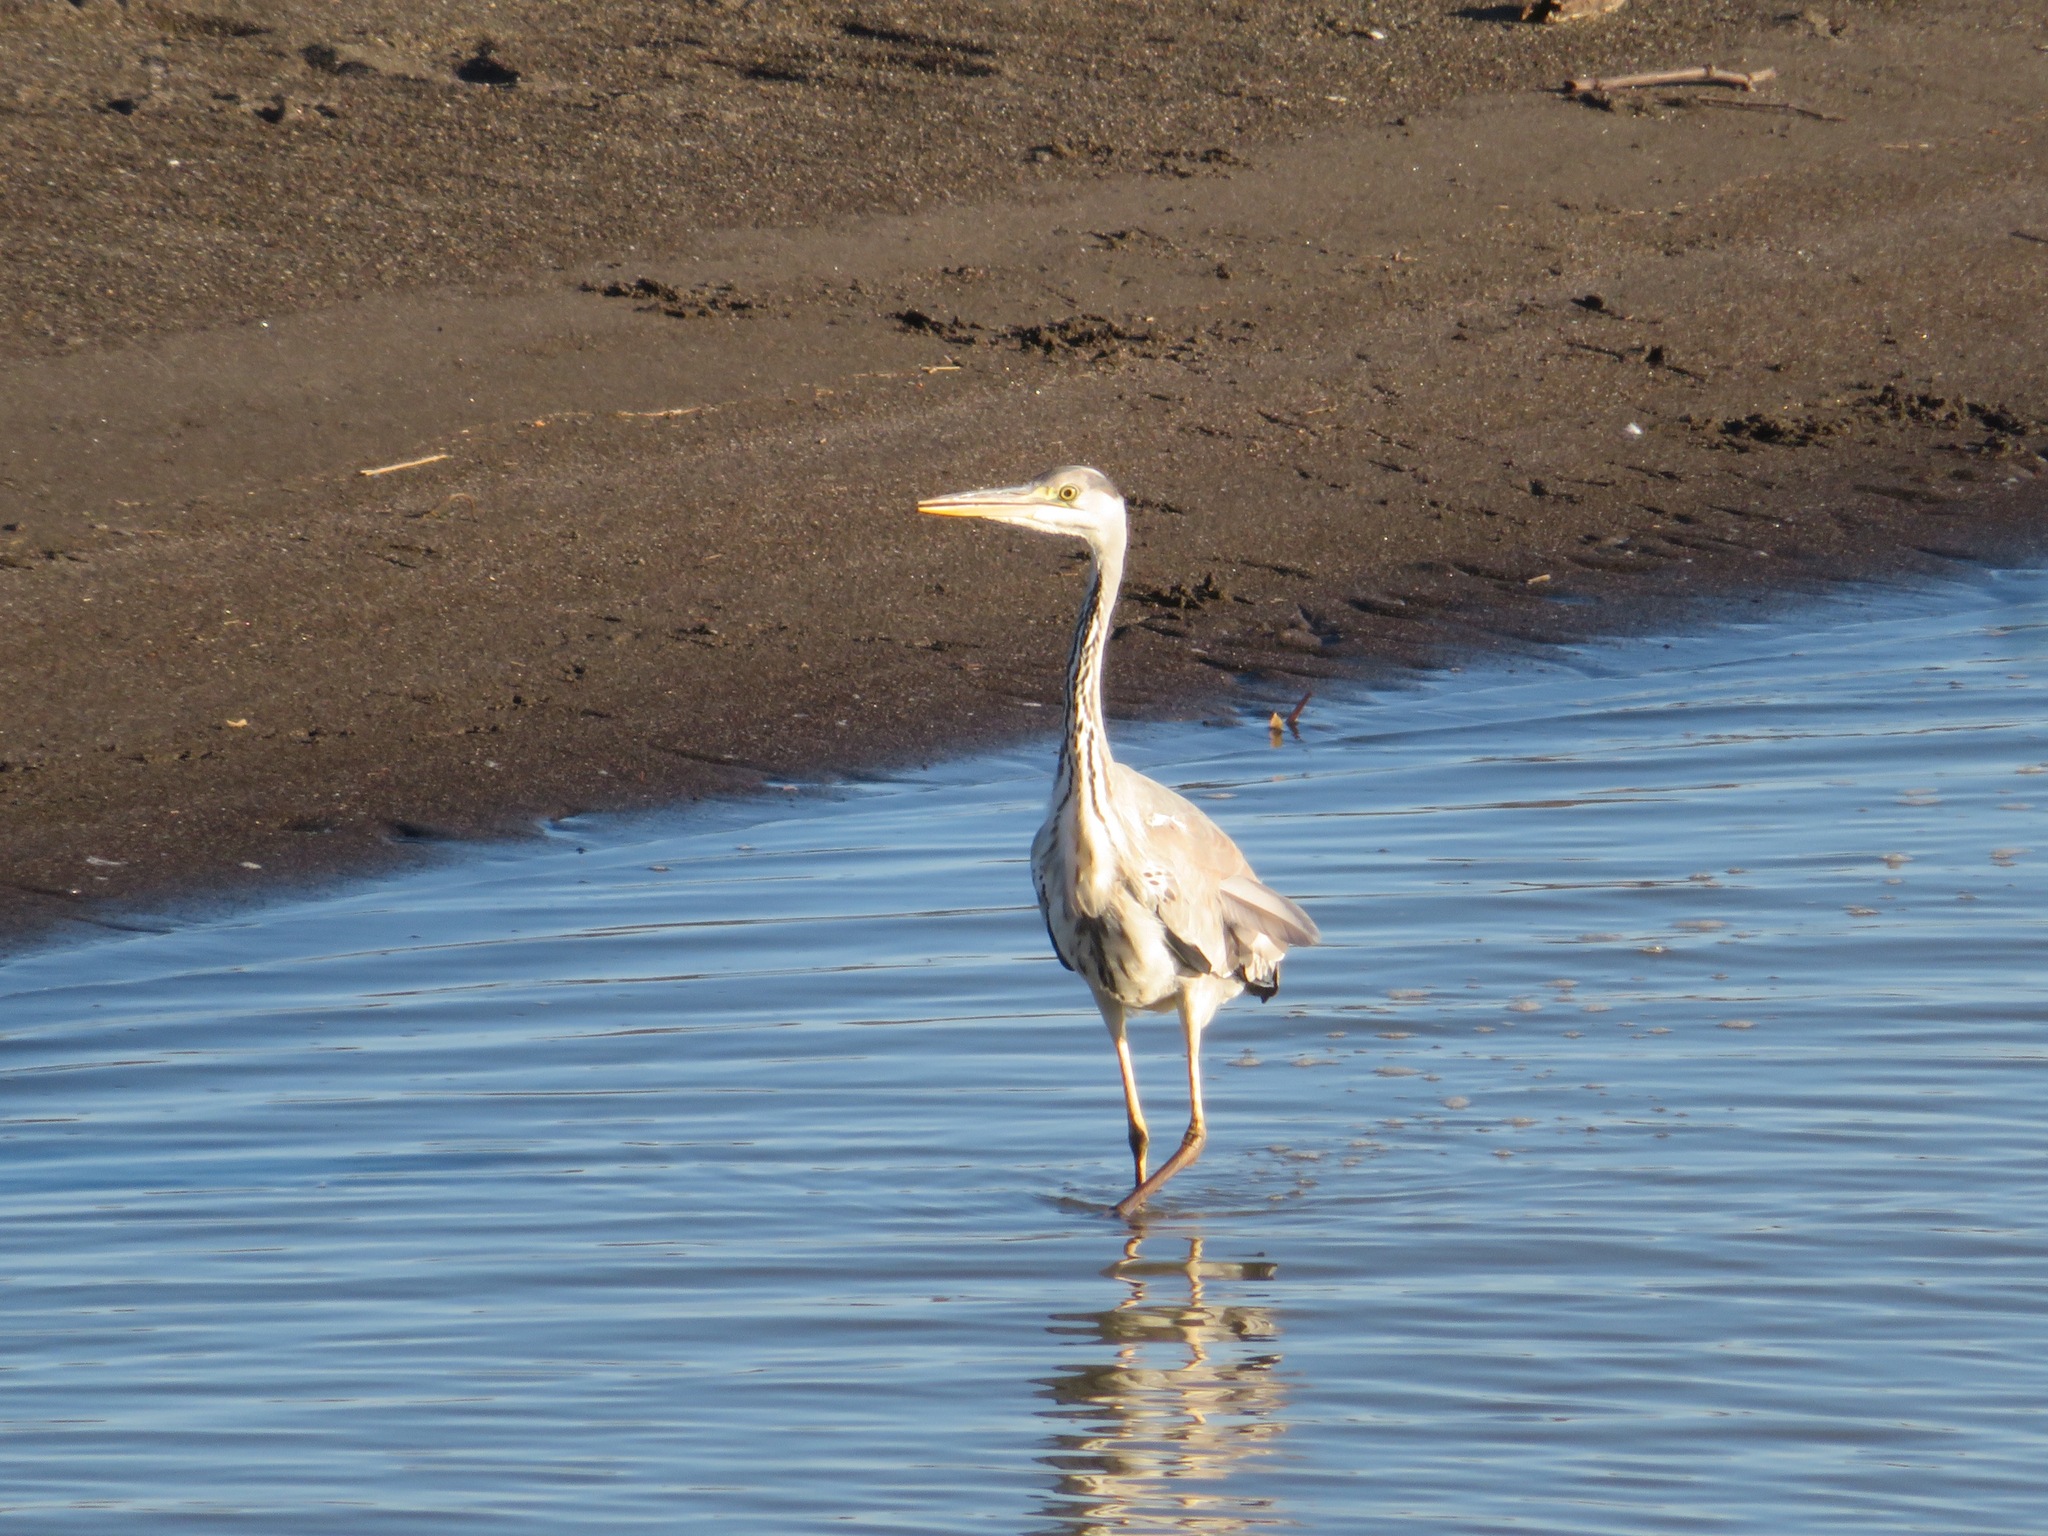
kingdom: Animalia
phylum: Chordata
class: Aves
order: Pelecaniformes
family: Ardeidae
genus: Ardea
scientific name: Ardea cinerea
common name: Grey heron
